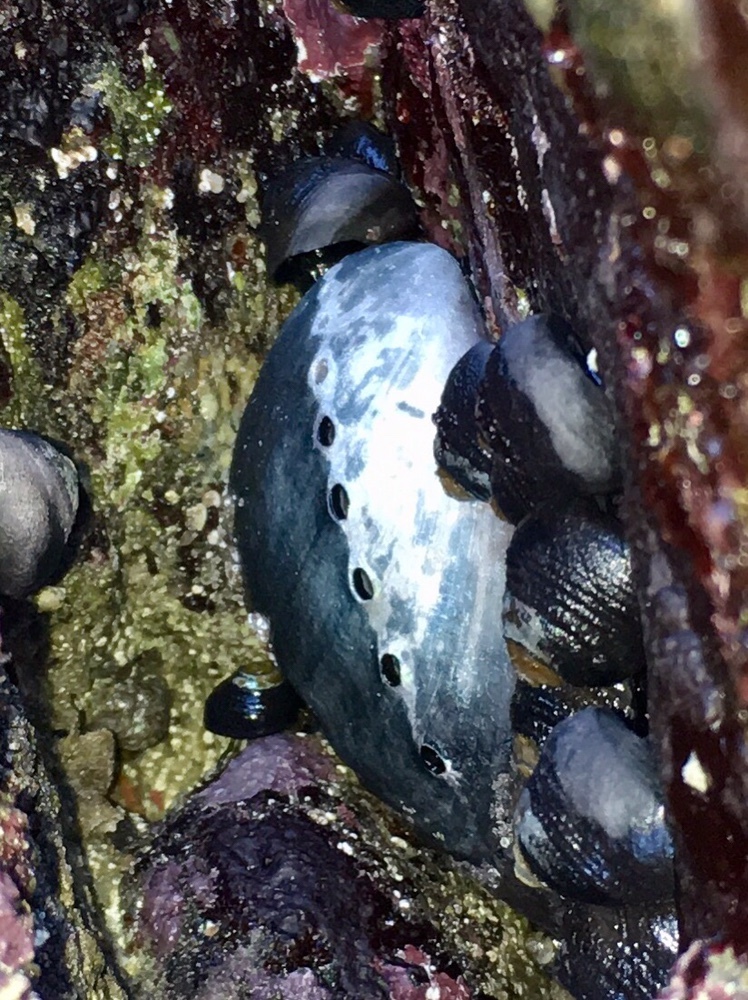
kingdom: Animalia
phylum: Mollusca
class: Gastropoda
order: Lepetellida
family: Haliotidae
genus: Haliotis
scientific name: Haliotis cracherodii
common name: Black abalone
